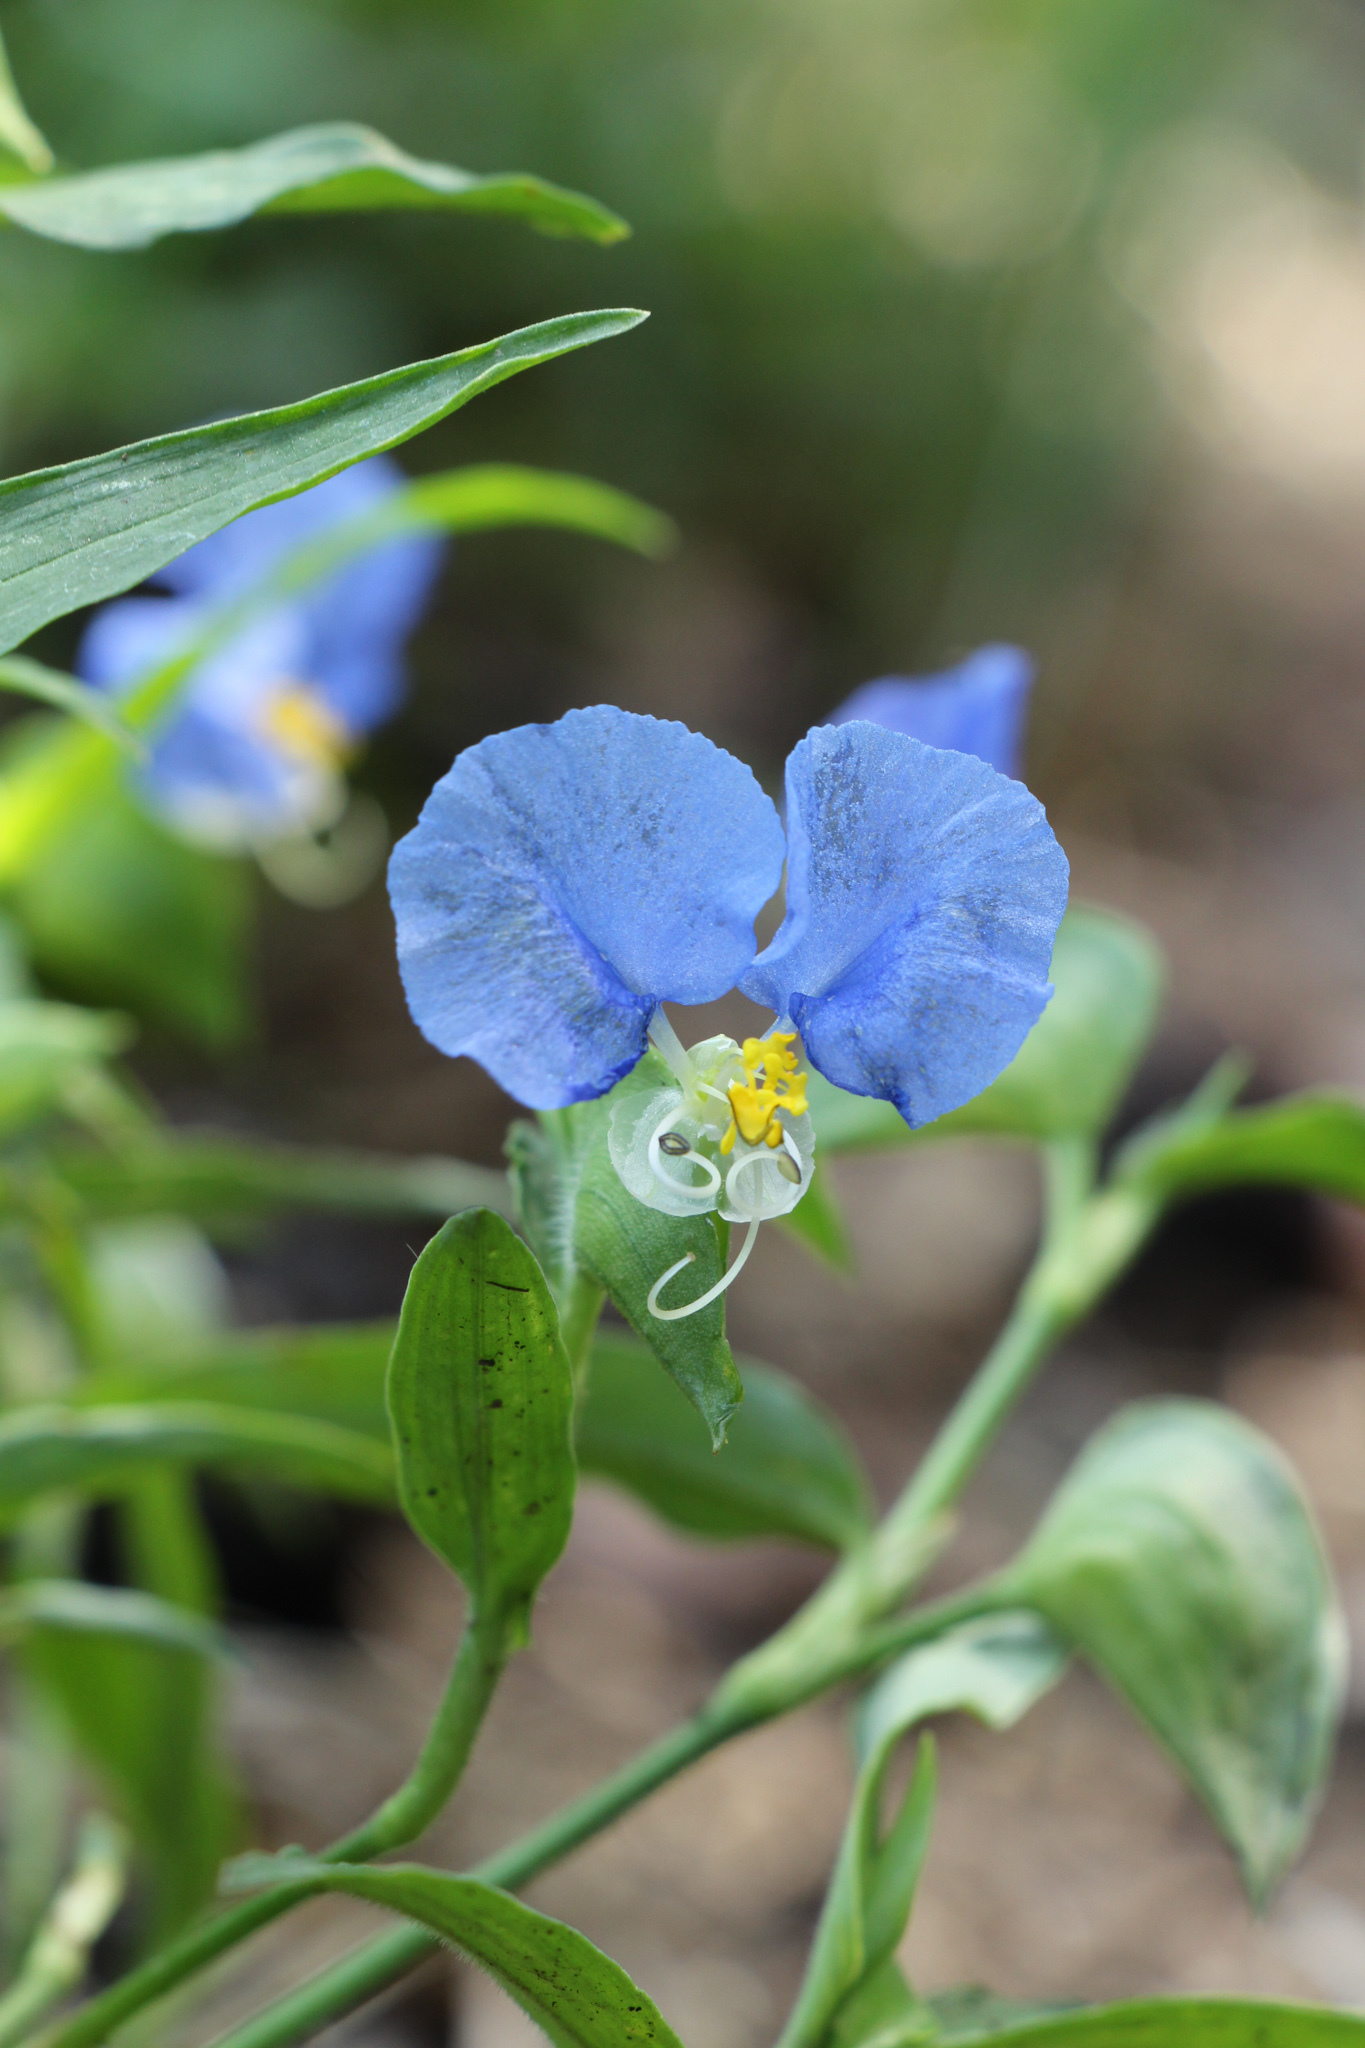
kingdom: Plantae
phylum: Tracheophyta
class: Liliopsida
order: Commelinales
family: Commelinaceae
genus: Commelina
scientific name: Commelina erecta
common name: Blousel blommetjie
